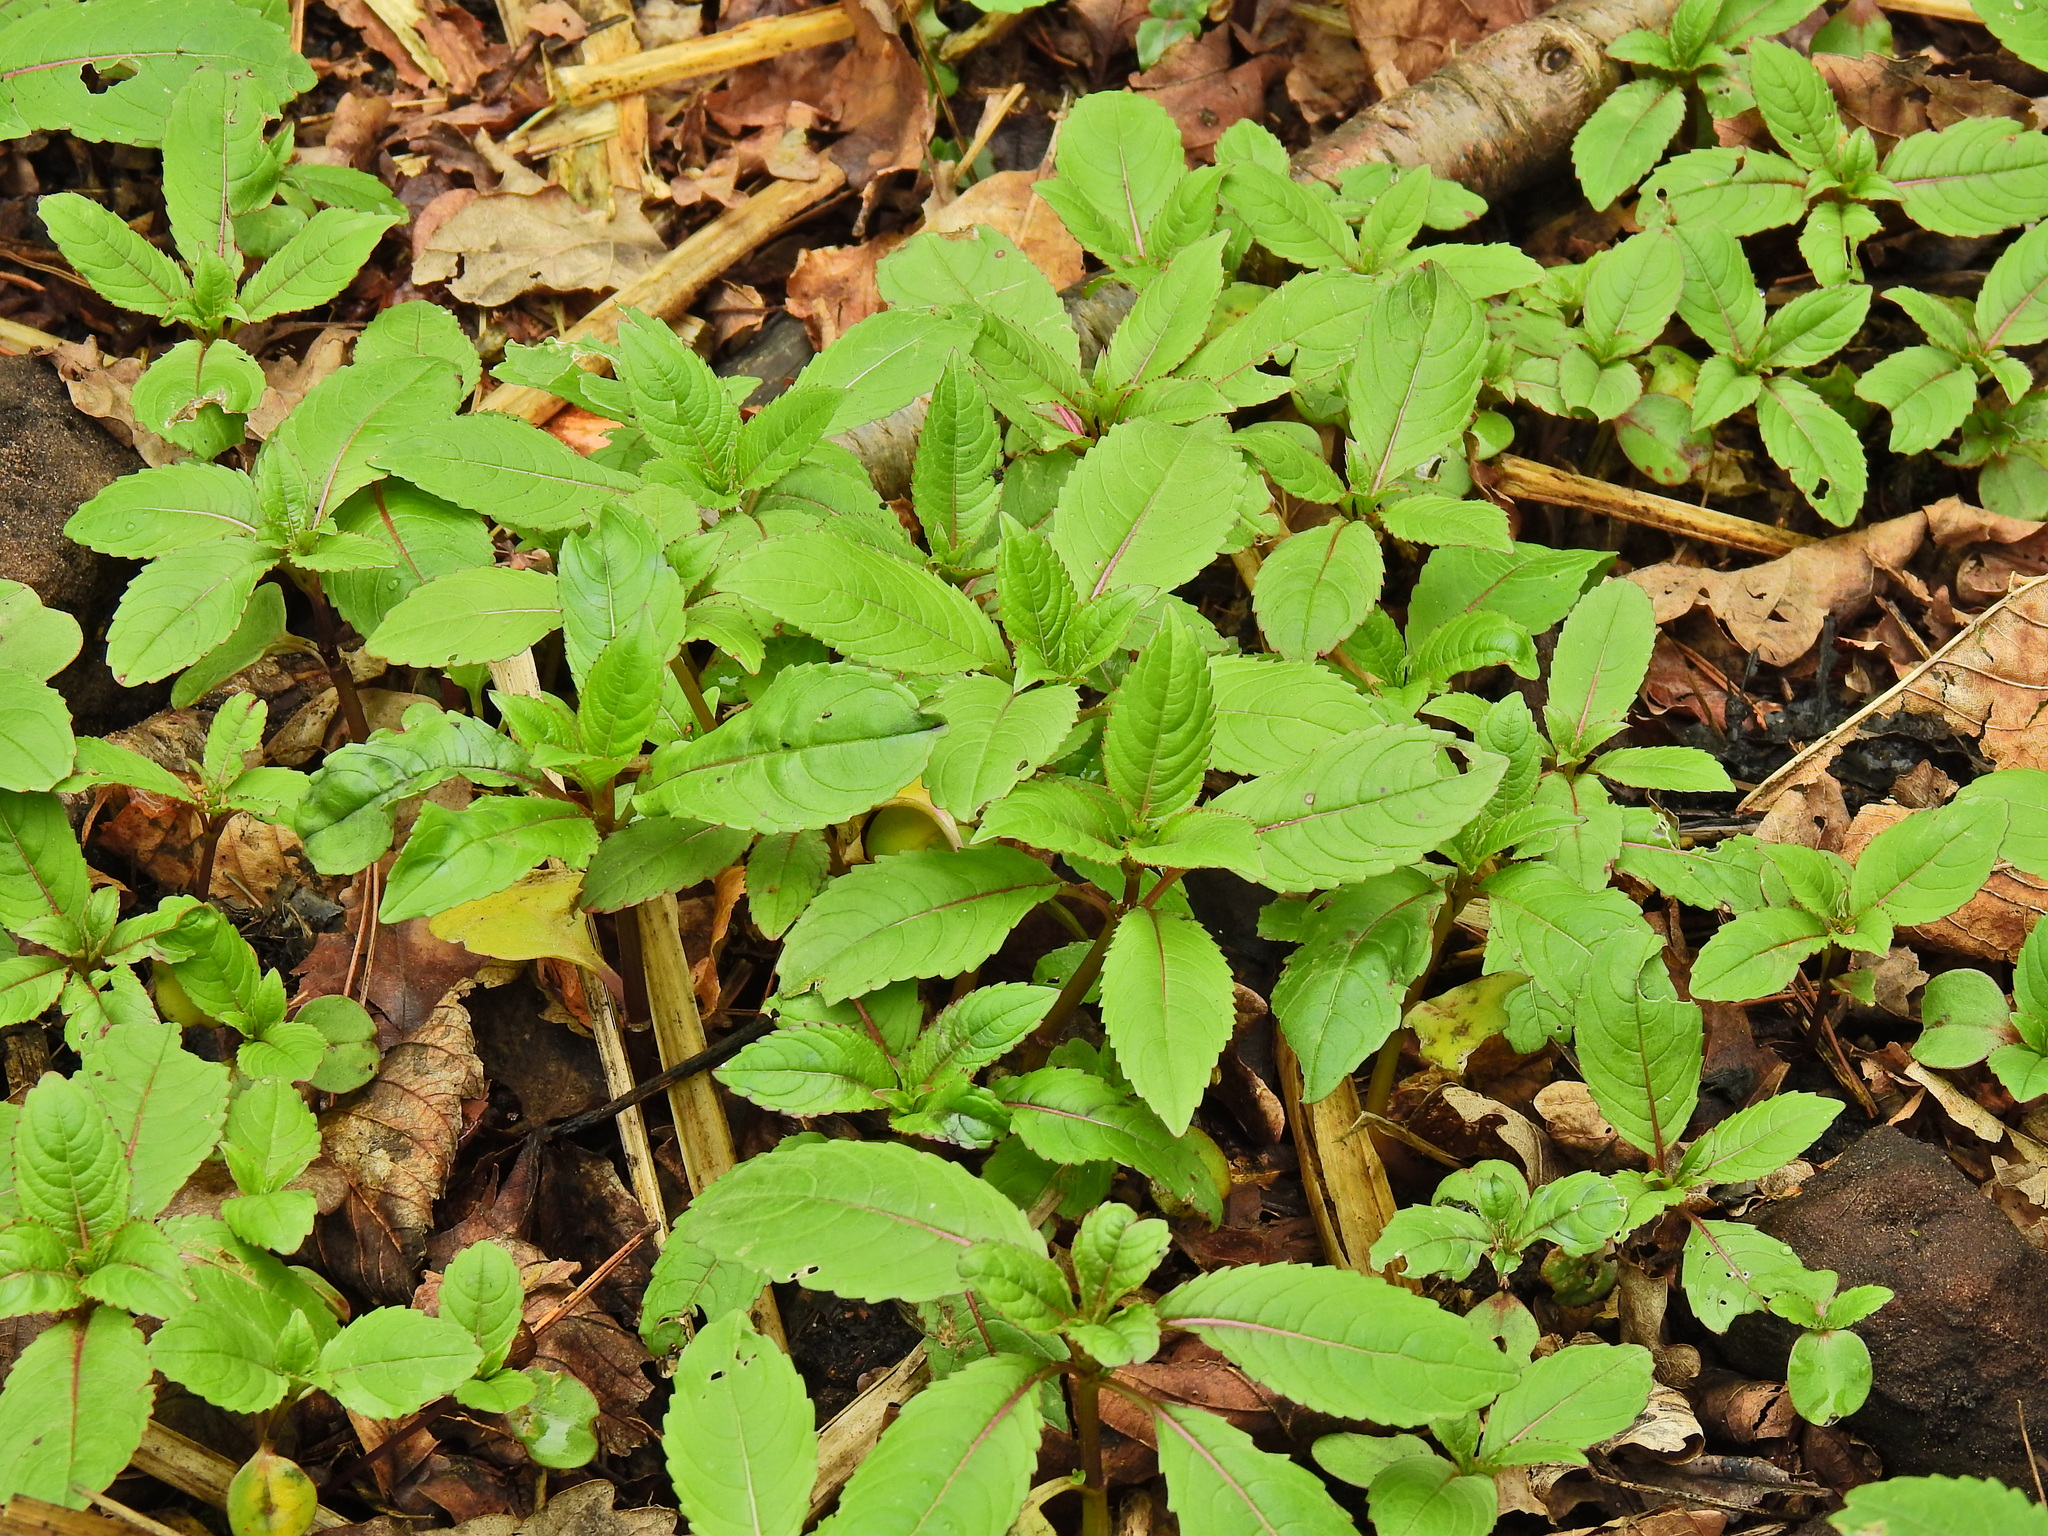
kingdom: Plantae
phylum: Tracheophyta
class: Magnoliopsida
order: Ericales
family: Balsaminaceae
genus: Impatiens
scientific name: Impatiens glandulifera
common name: Himalayan balsam
